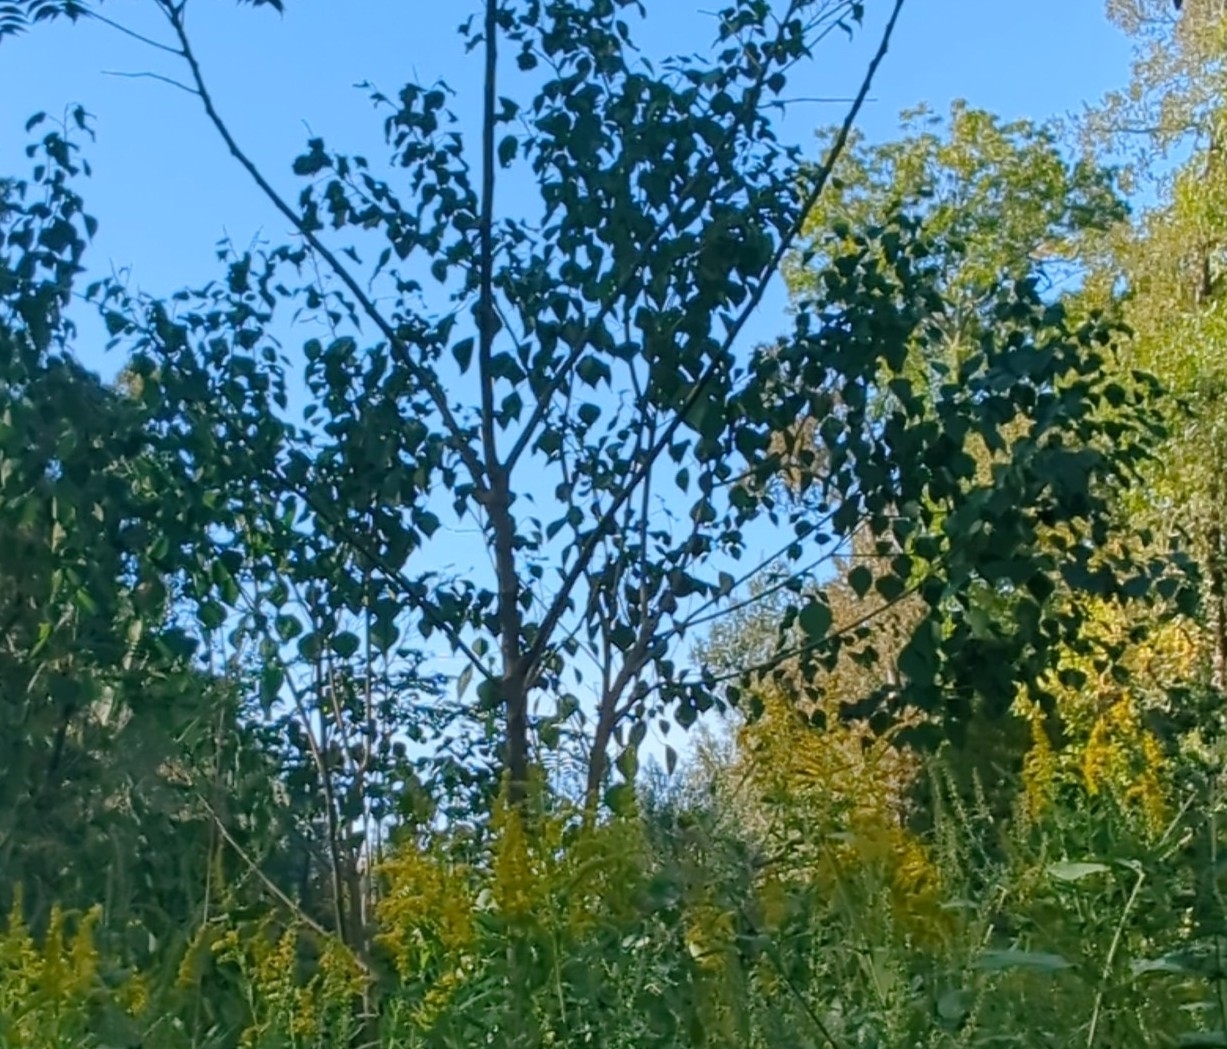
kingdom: Plantae
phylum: Tracheophyta
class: Magnoliopsida
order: Malpighiales
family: Euphorbiaceae
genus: Triadica
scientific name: Triadica sebifera
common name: Chinese tallow
